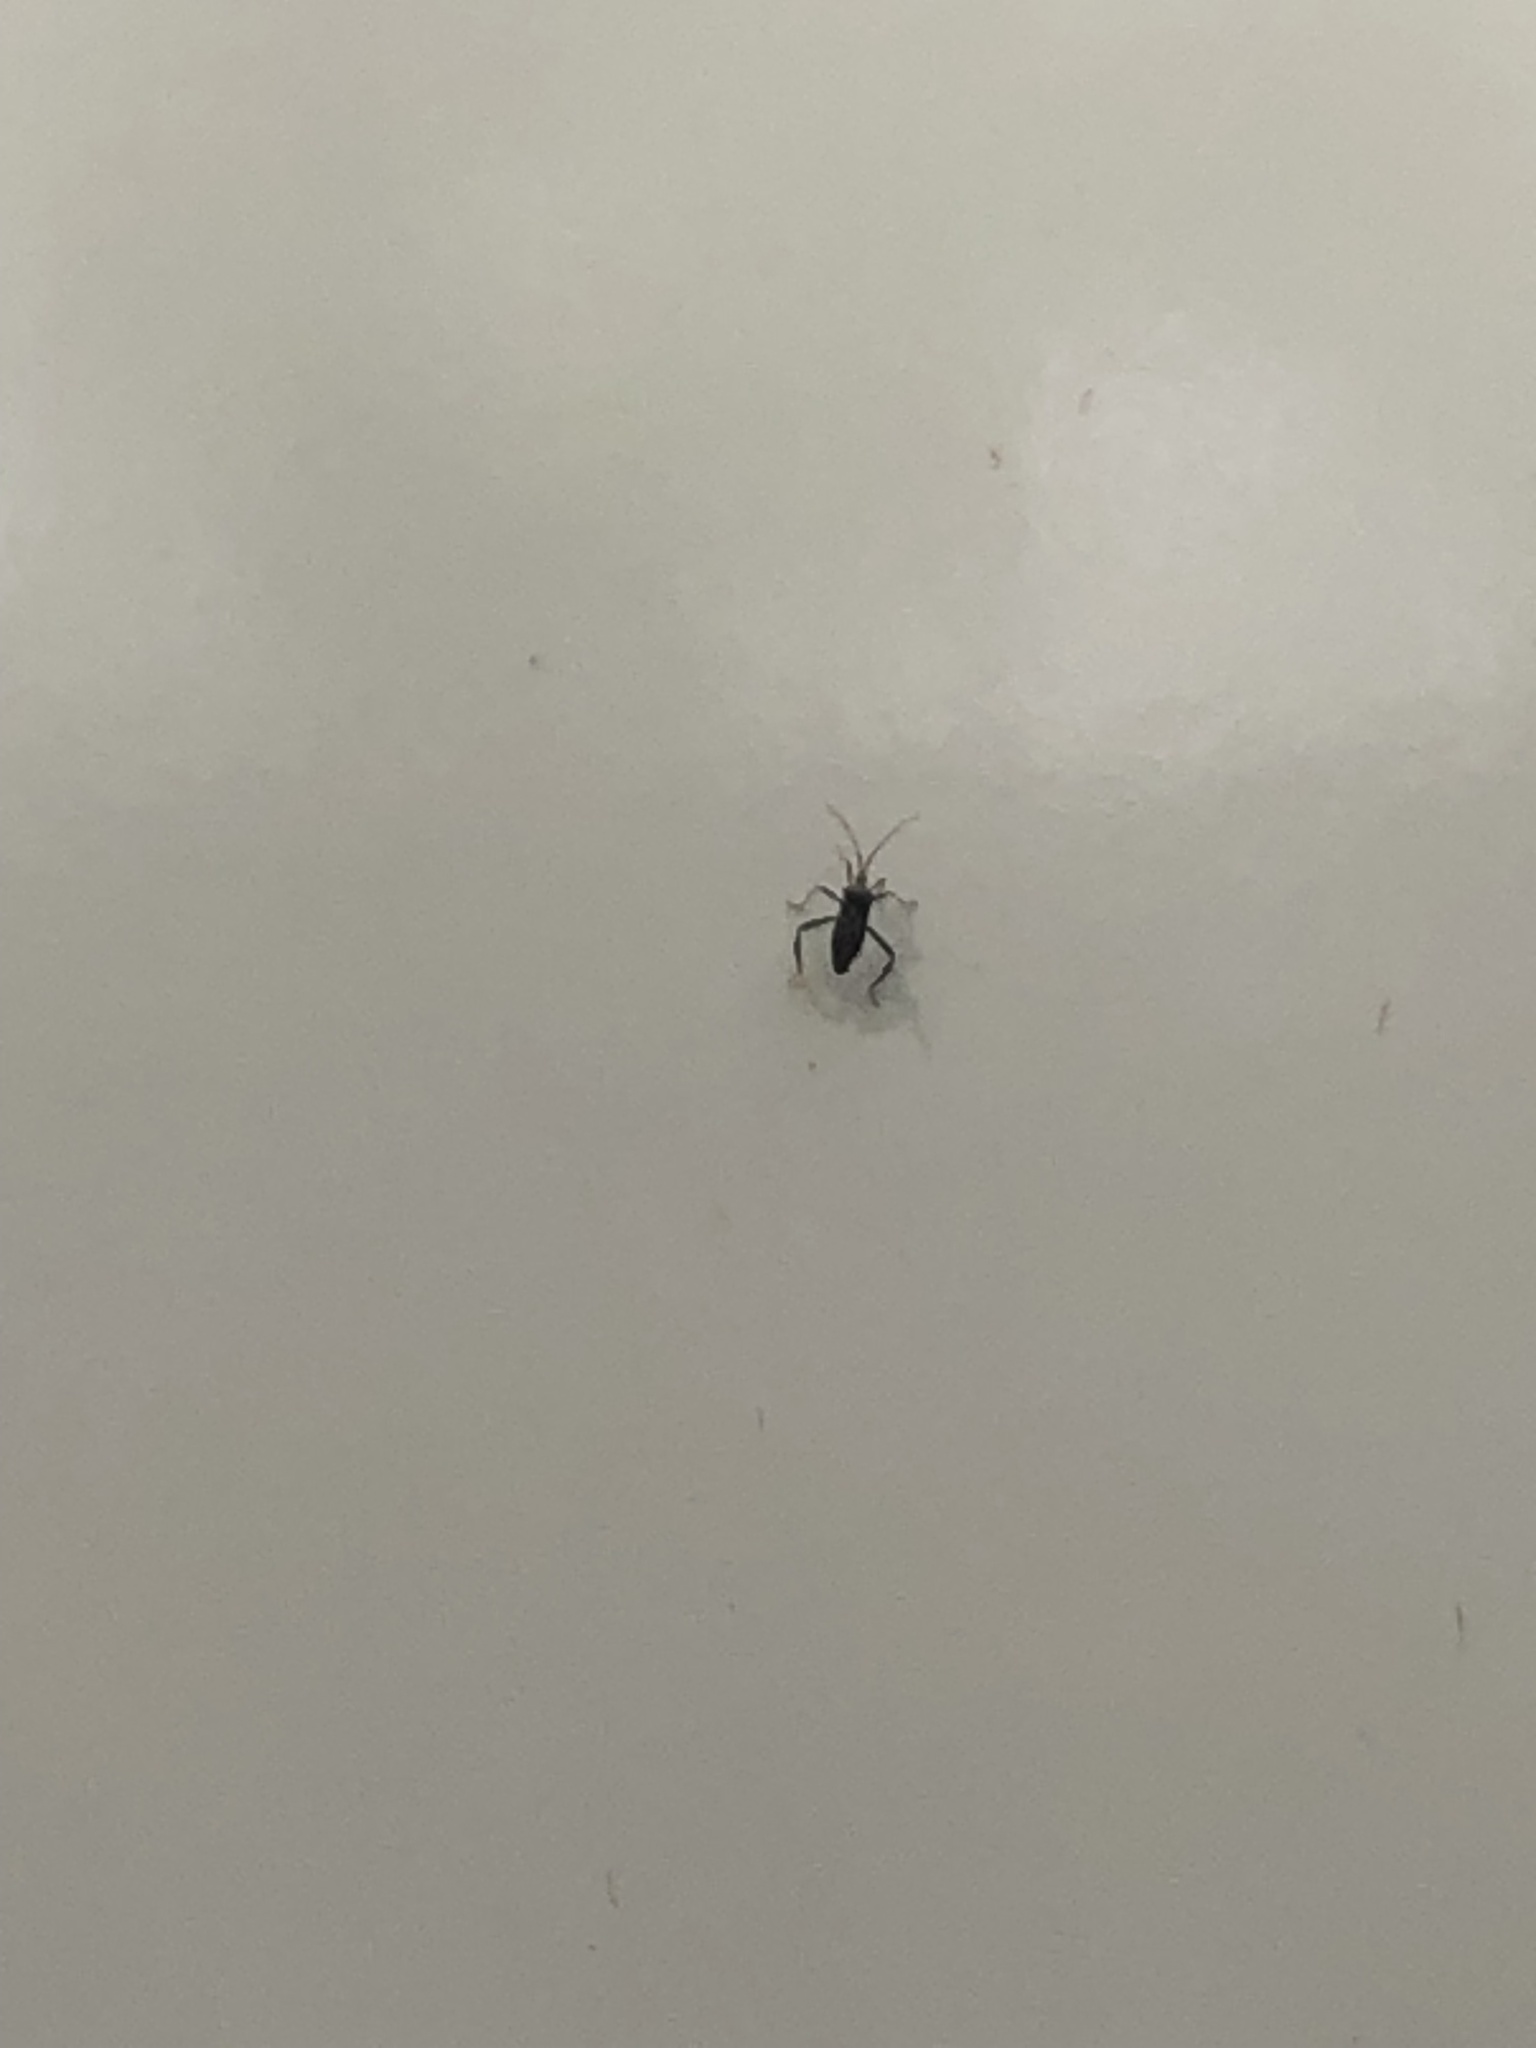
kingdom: Animalia
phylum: Arthropoda
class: Insecta
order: Hemiptera
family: Coreidae
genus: Acanthocephala
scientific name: Acanthocephala terminalis
